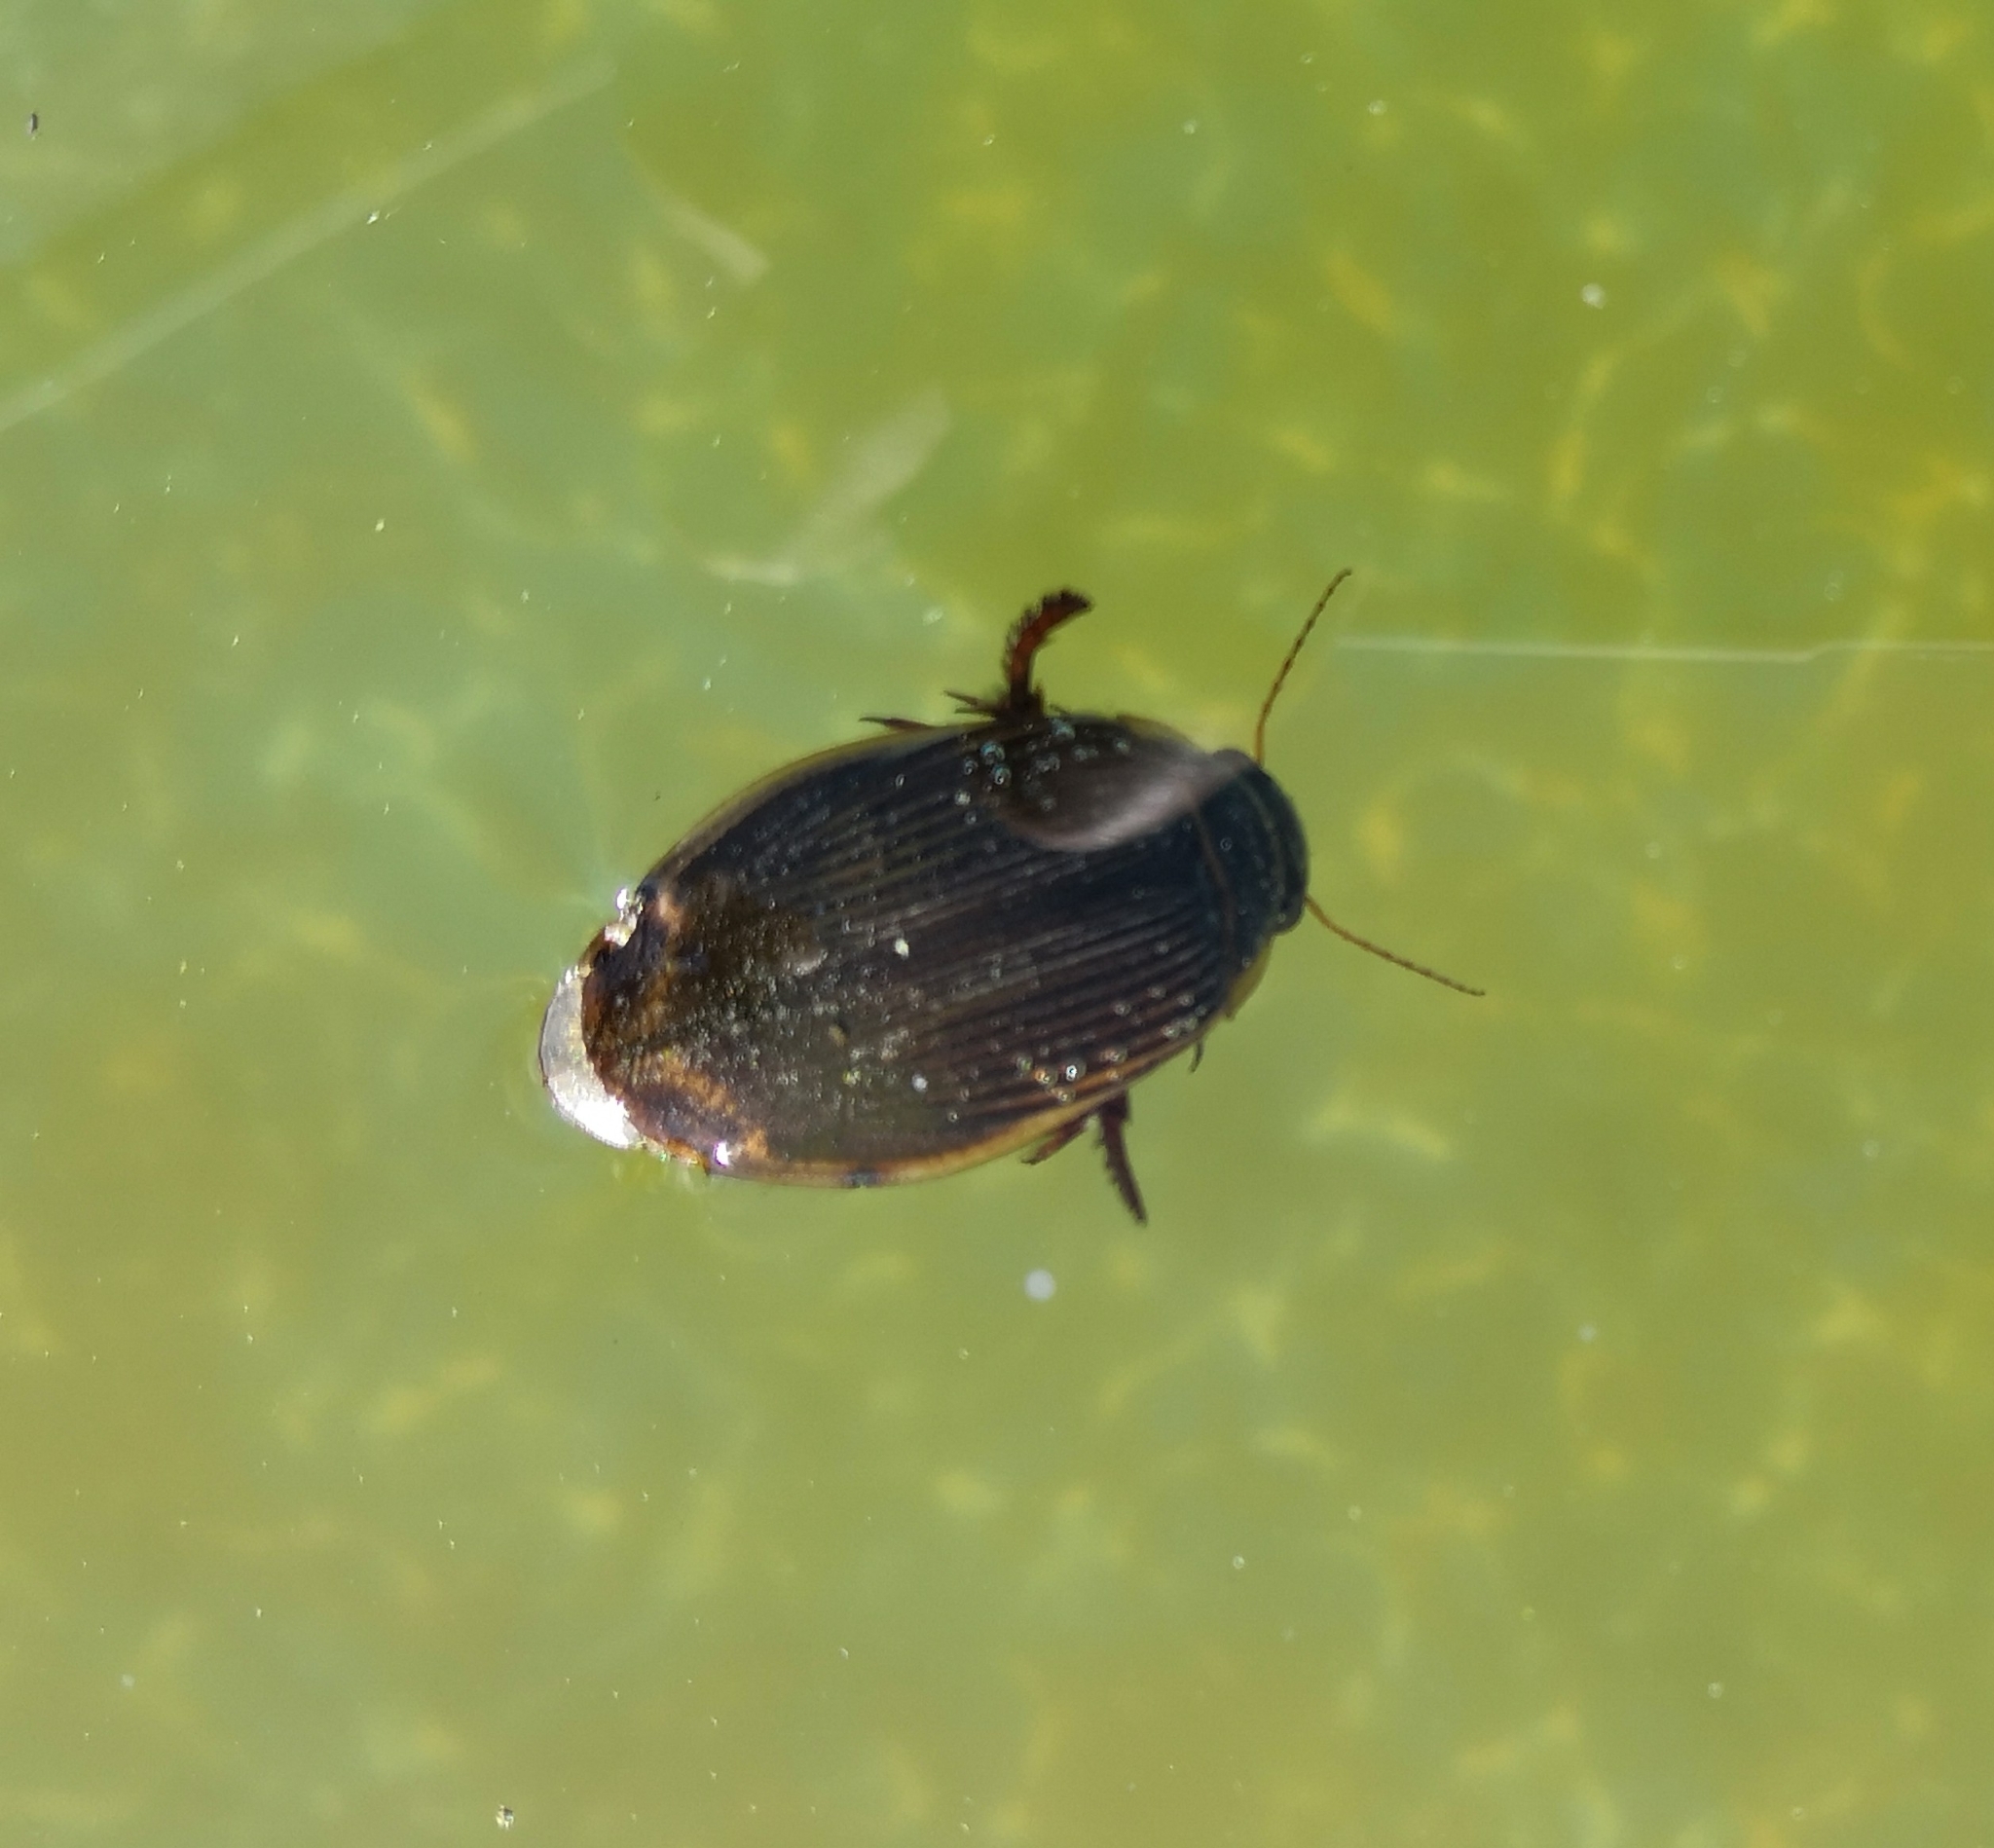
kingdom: Animalia
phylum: Arthropoda
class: Insecta
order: Coleoptera
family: Dytiscidae
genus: Dytiscus
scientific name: Dytiscus marginalis
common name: Great water beetle
